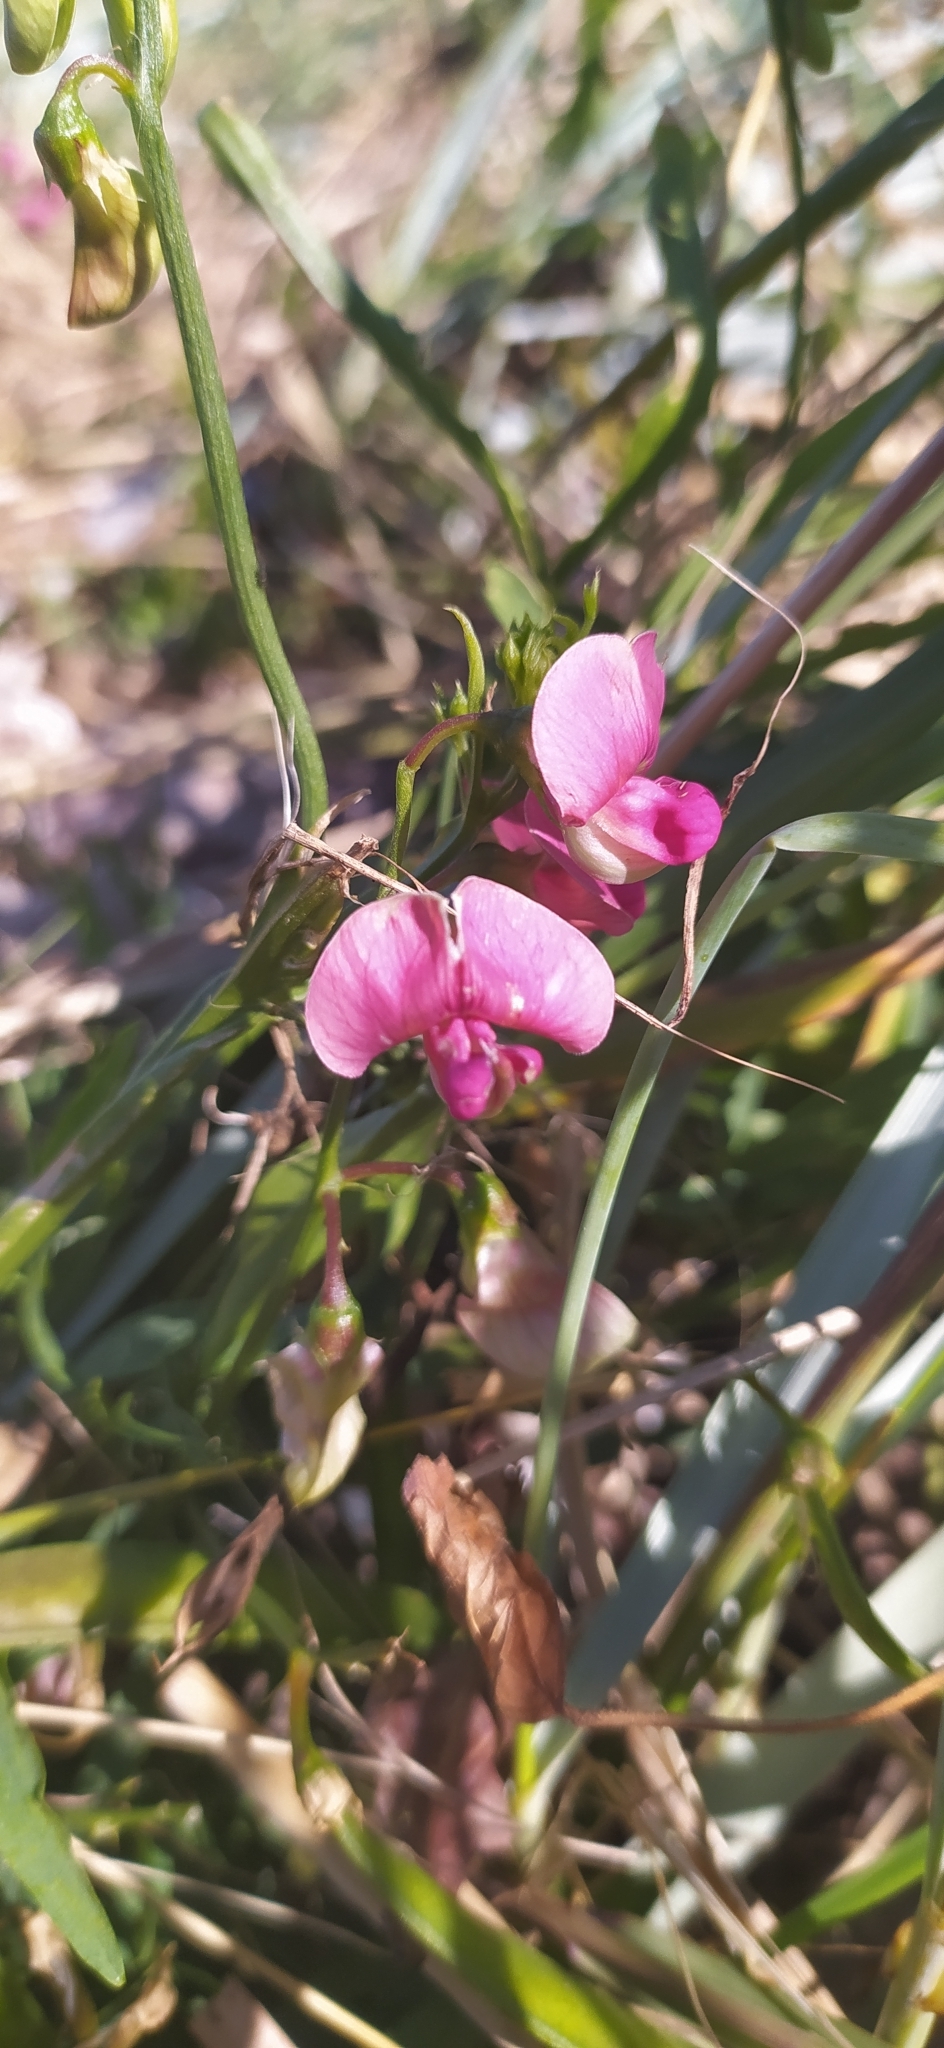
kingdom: Plantae
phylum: Tracheophyta
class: Magnoliopsida
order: Fabales
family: Fabaceae
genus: Lathyrus
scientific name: Lathyrus sylvestris
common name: Flat pea
